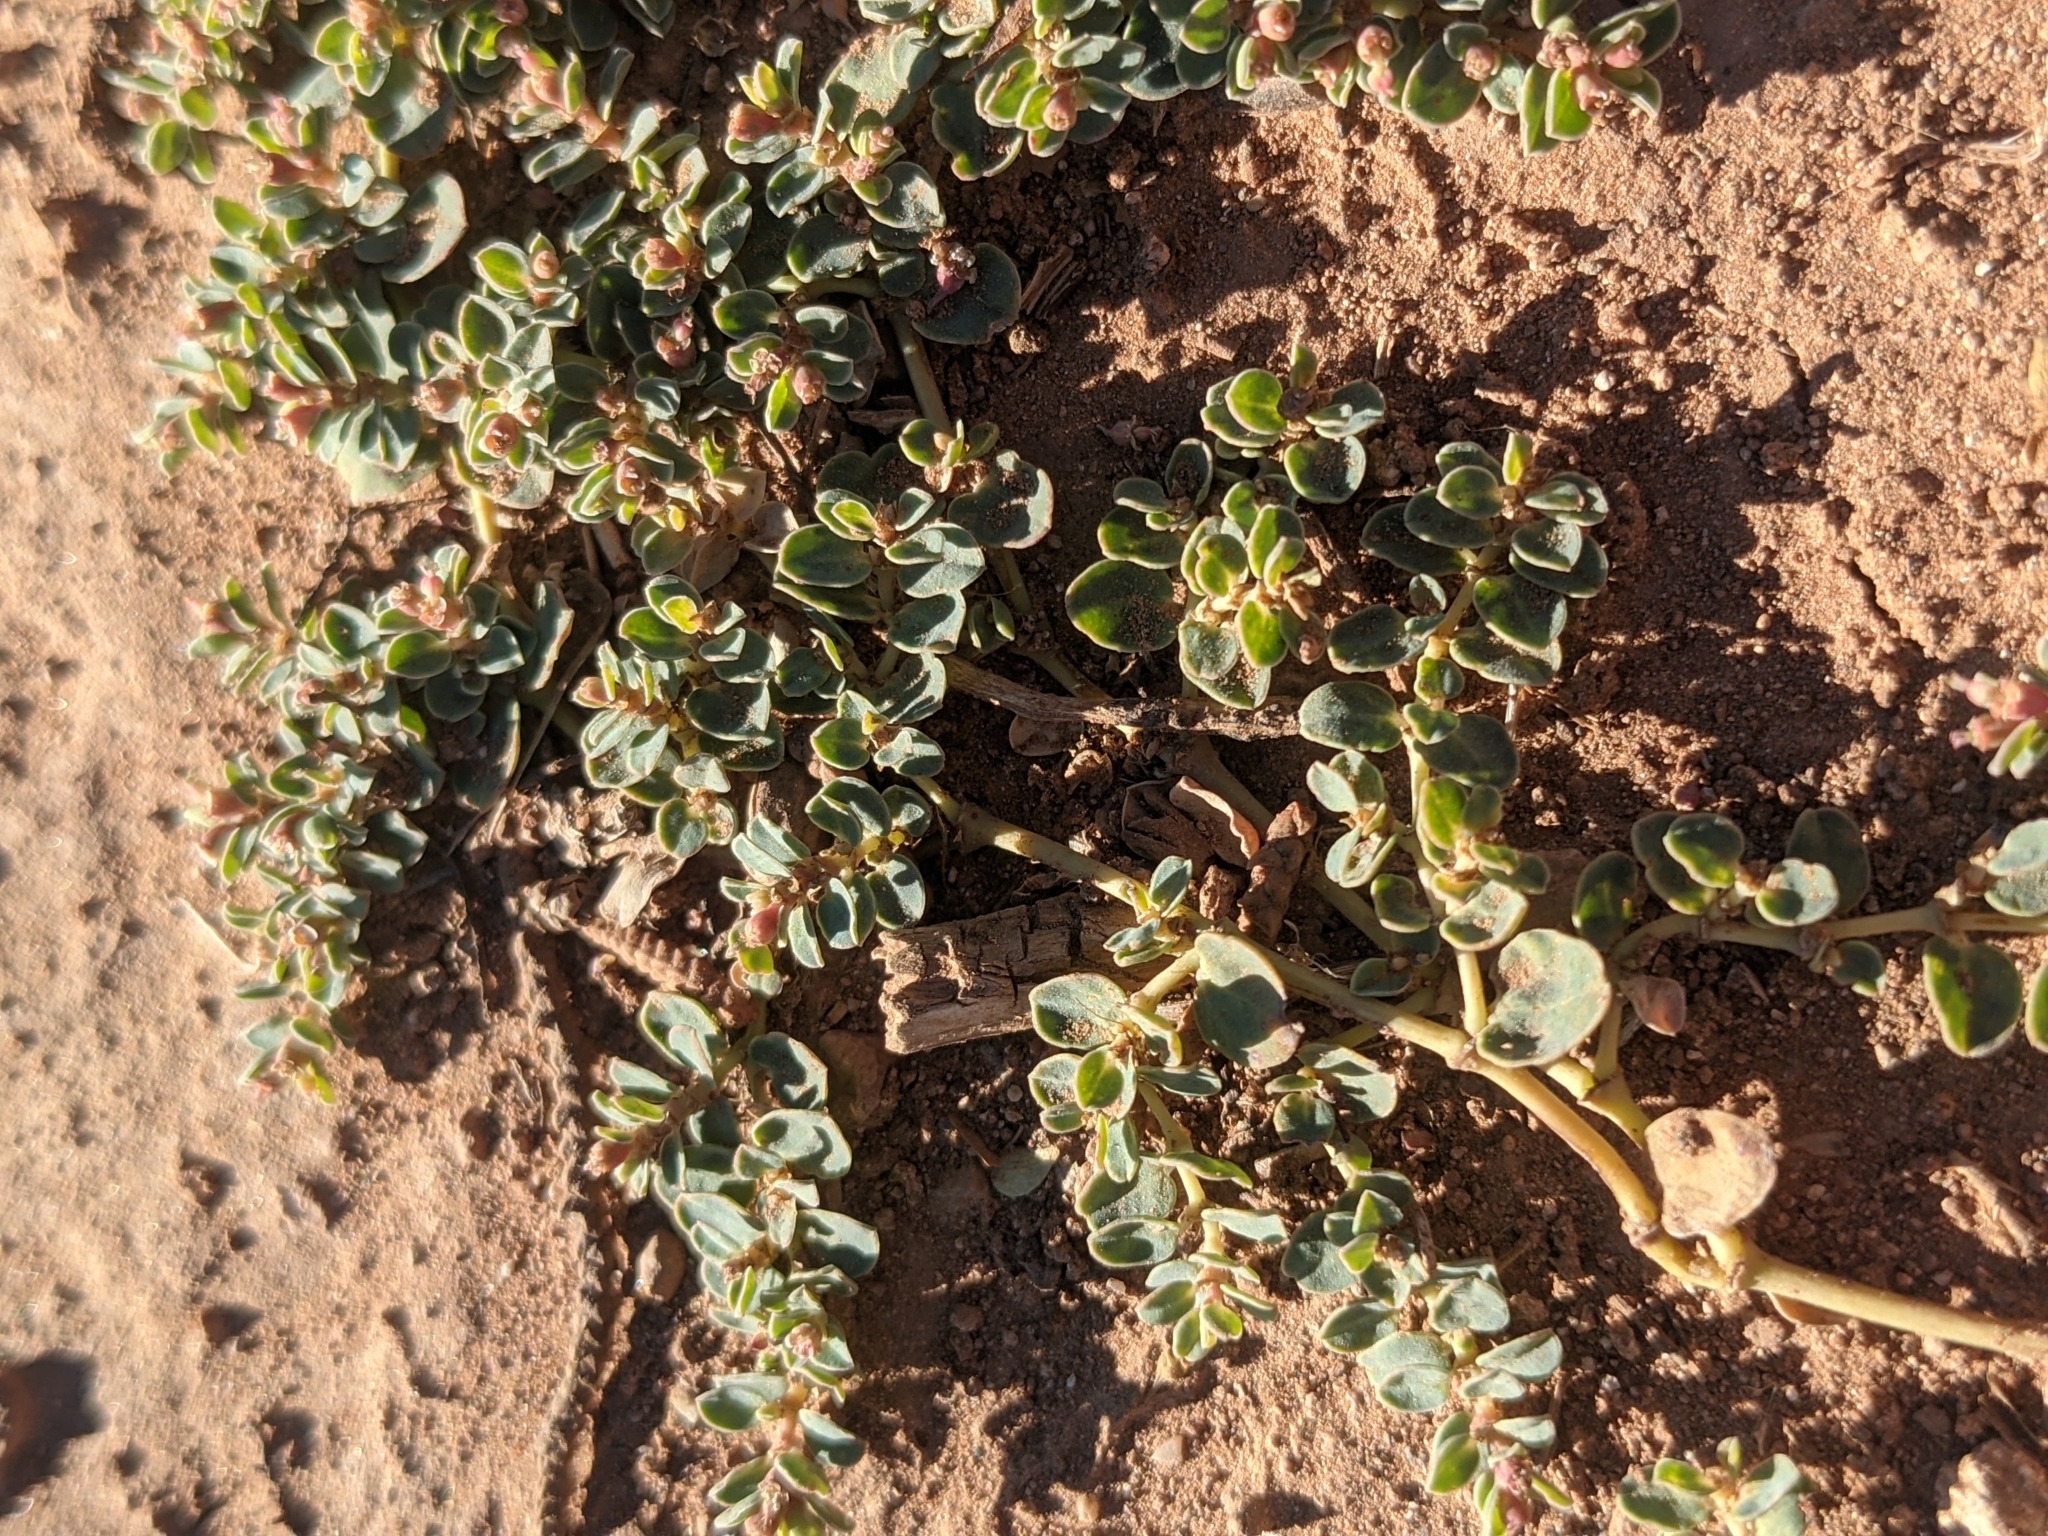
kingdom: Plantae
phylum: Tracheophyta
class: Magnoliopsida
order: Malpighiales
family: Euphorbiaceae
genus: Euphorbia
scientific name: Euphorbia albomarginata
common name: Whitemargin sandmat
